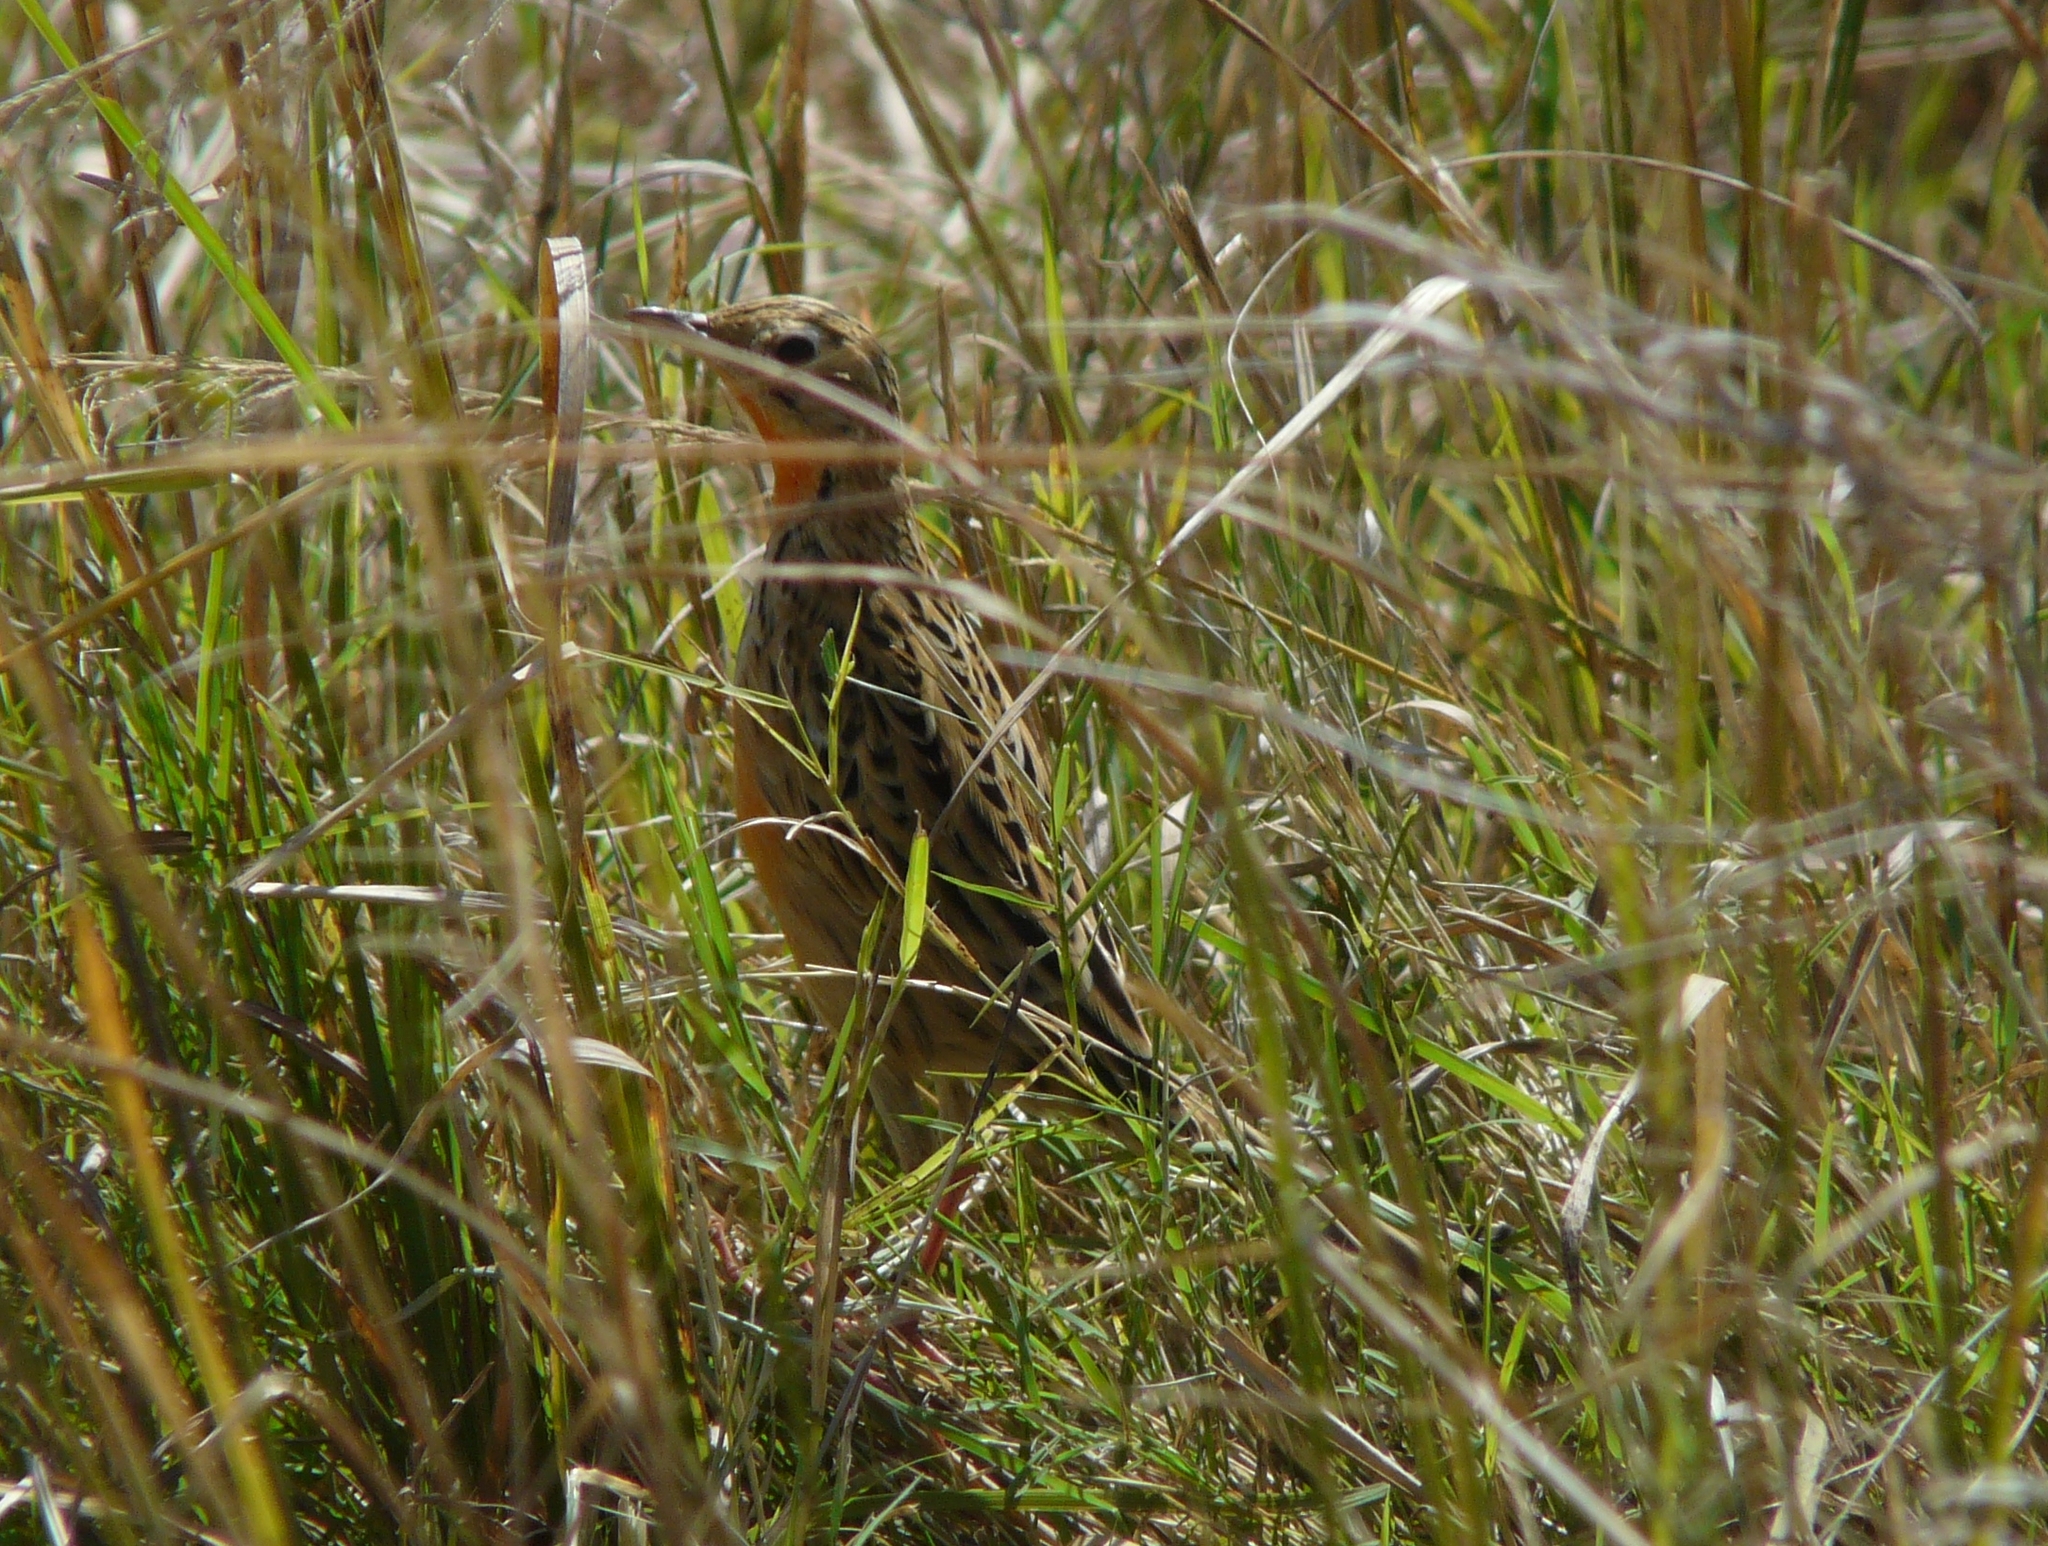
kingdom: Animalia
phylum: Chordata
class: Aves
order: Passeriformes
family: Motacillidae
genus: Macronyx
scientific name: Macronyx ameliae
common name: Rosy-throated longclaw
